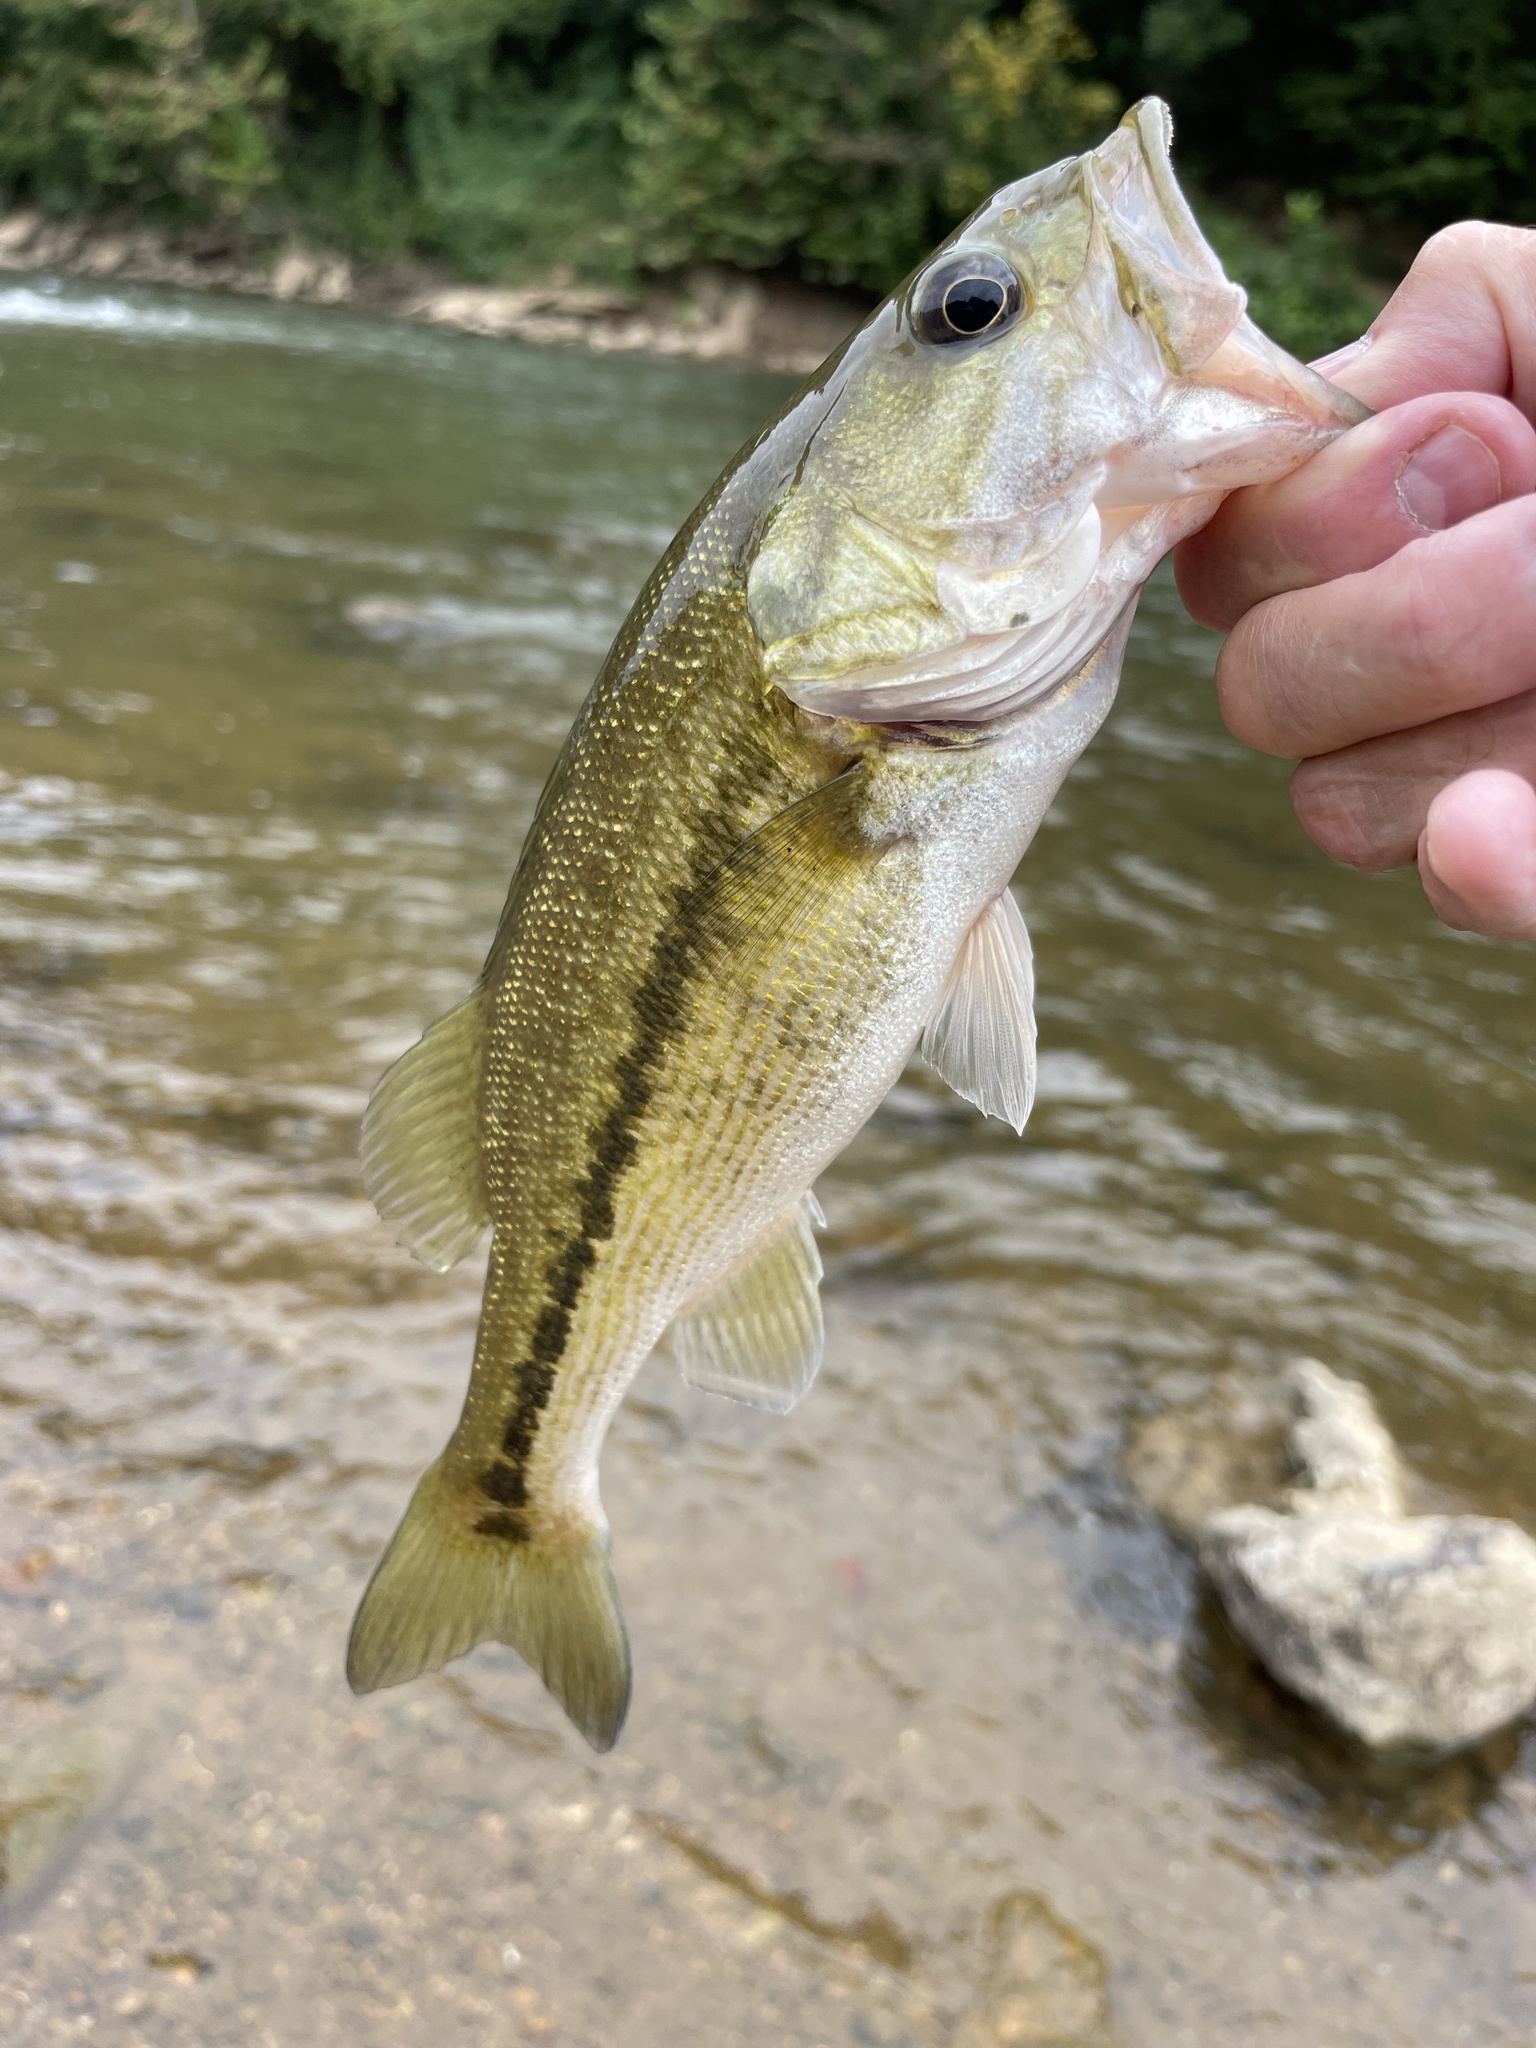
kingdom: Animalia
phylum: Chordata
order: Perciformes
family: Centrarchidae
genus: Micropterus
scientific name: Micropterus
